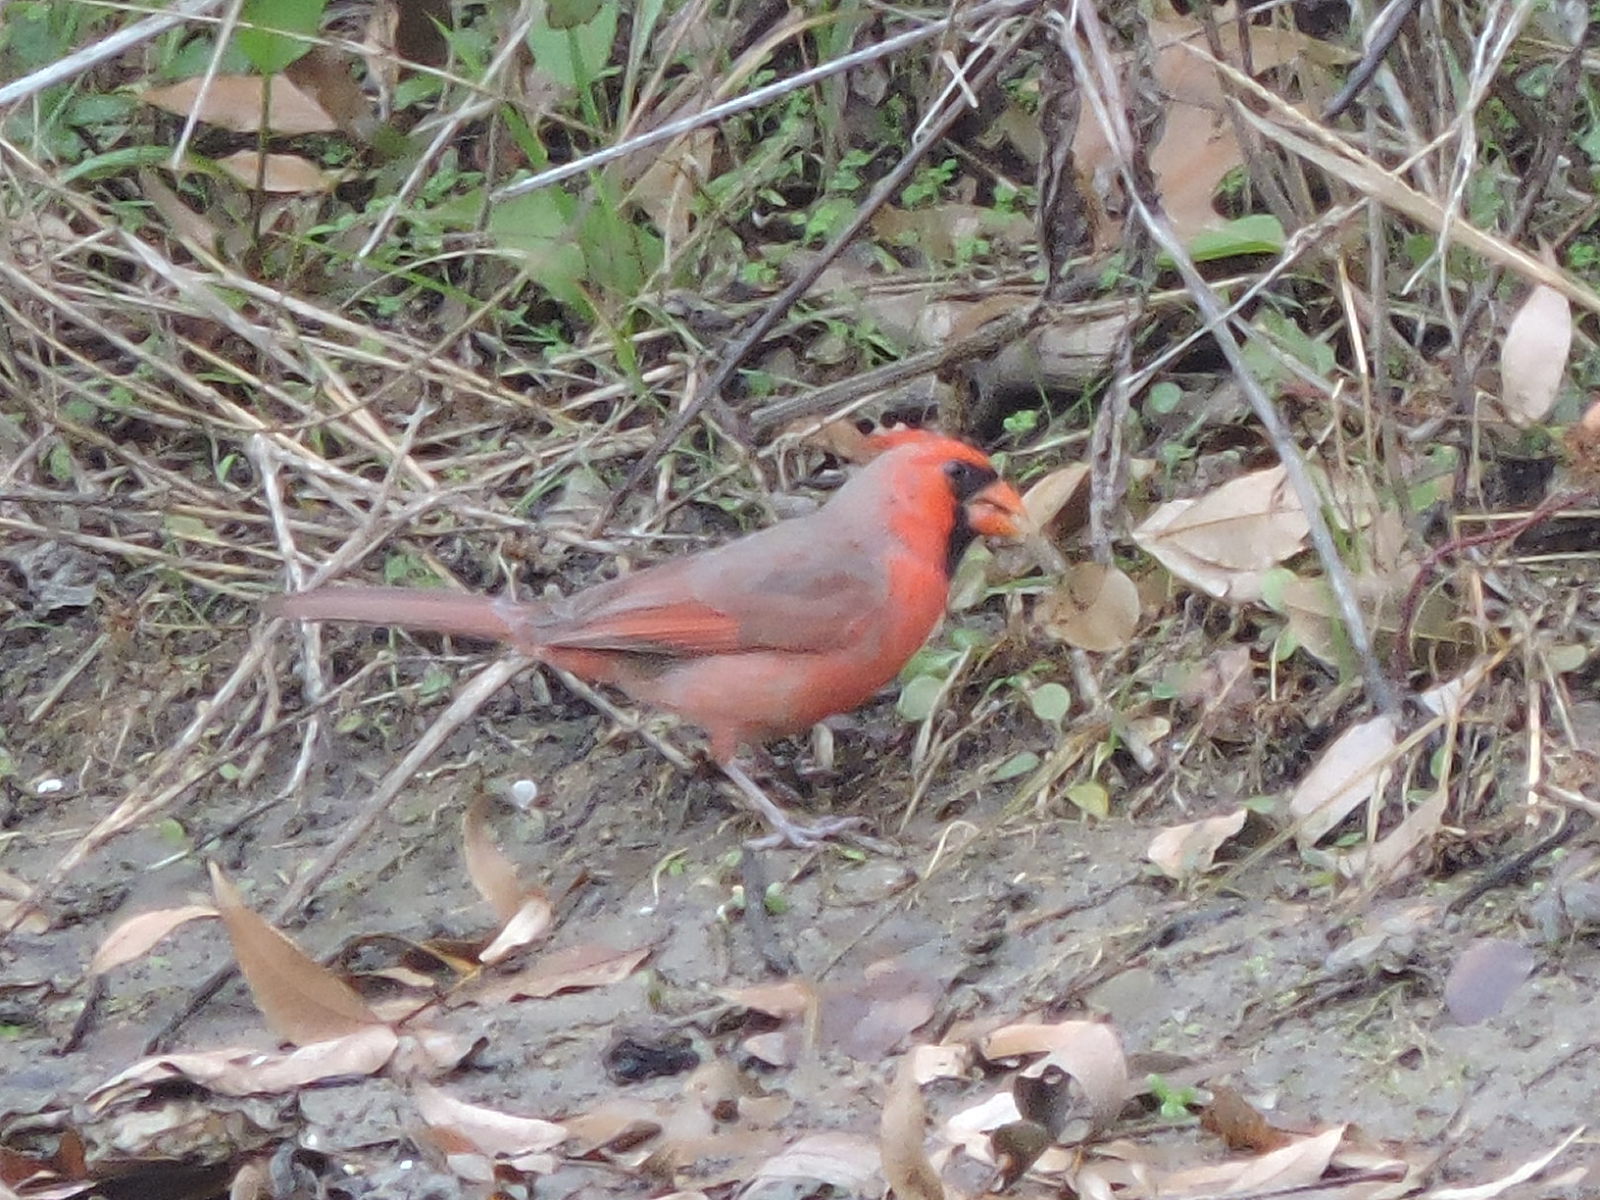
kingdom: Animalia
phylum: Chordata
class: Aves
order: Passeriformes
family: Cardinalidae
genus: Cardinalis
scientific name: Cardinalis cardinalis
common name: Northern cardinal
